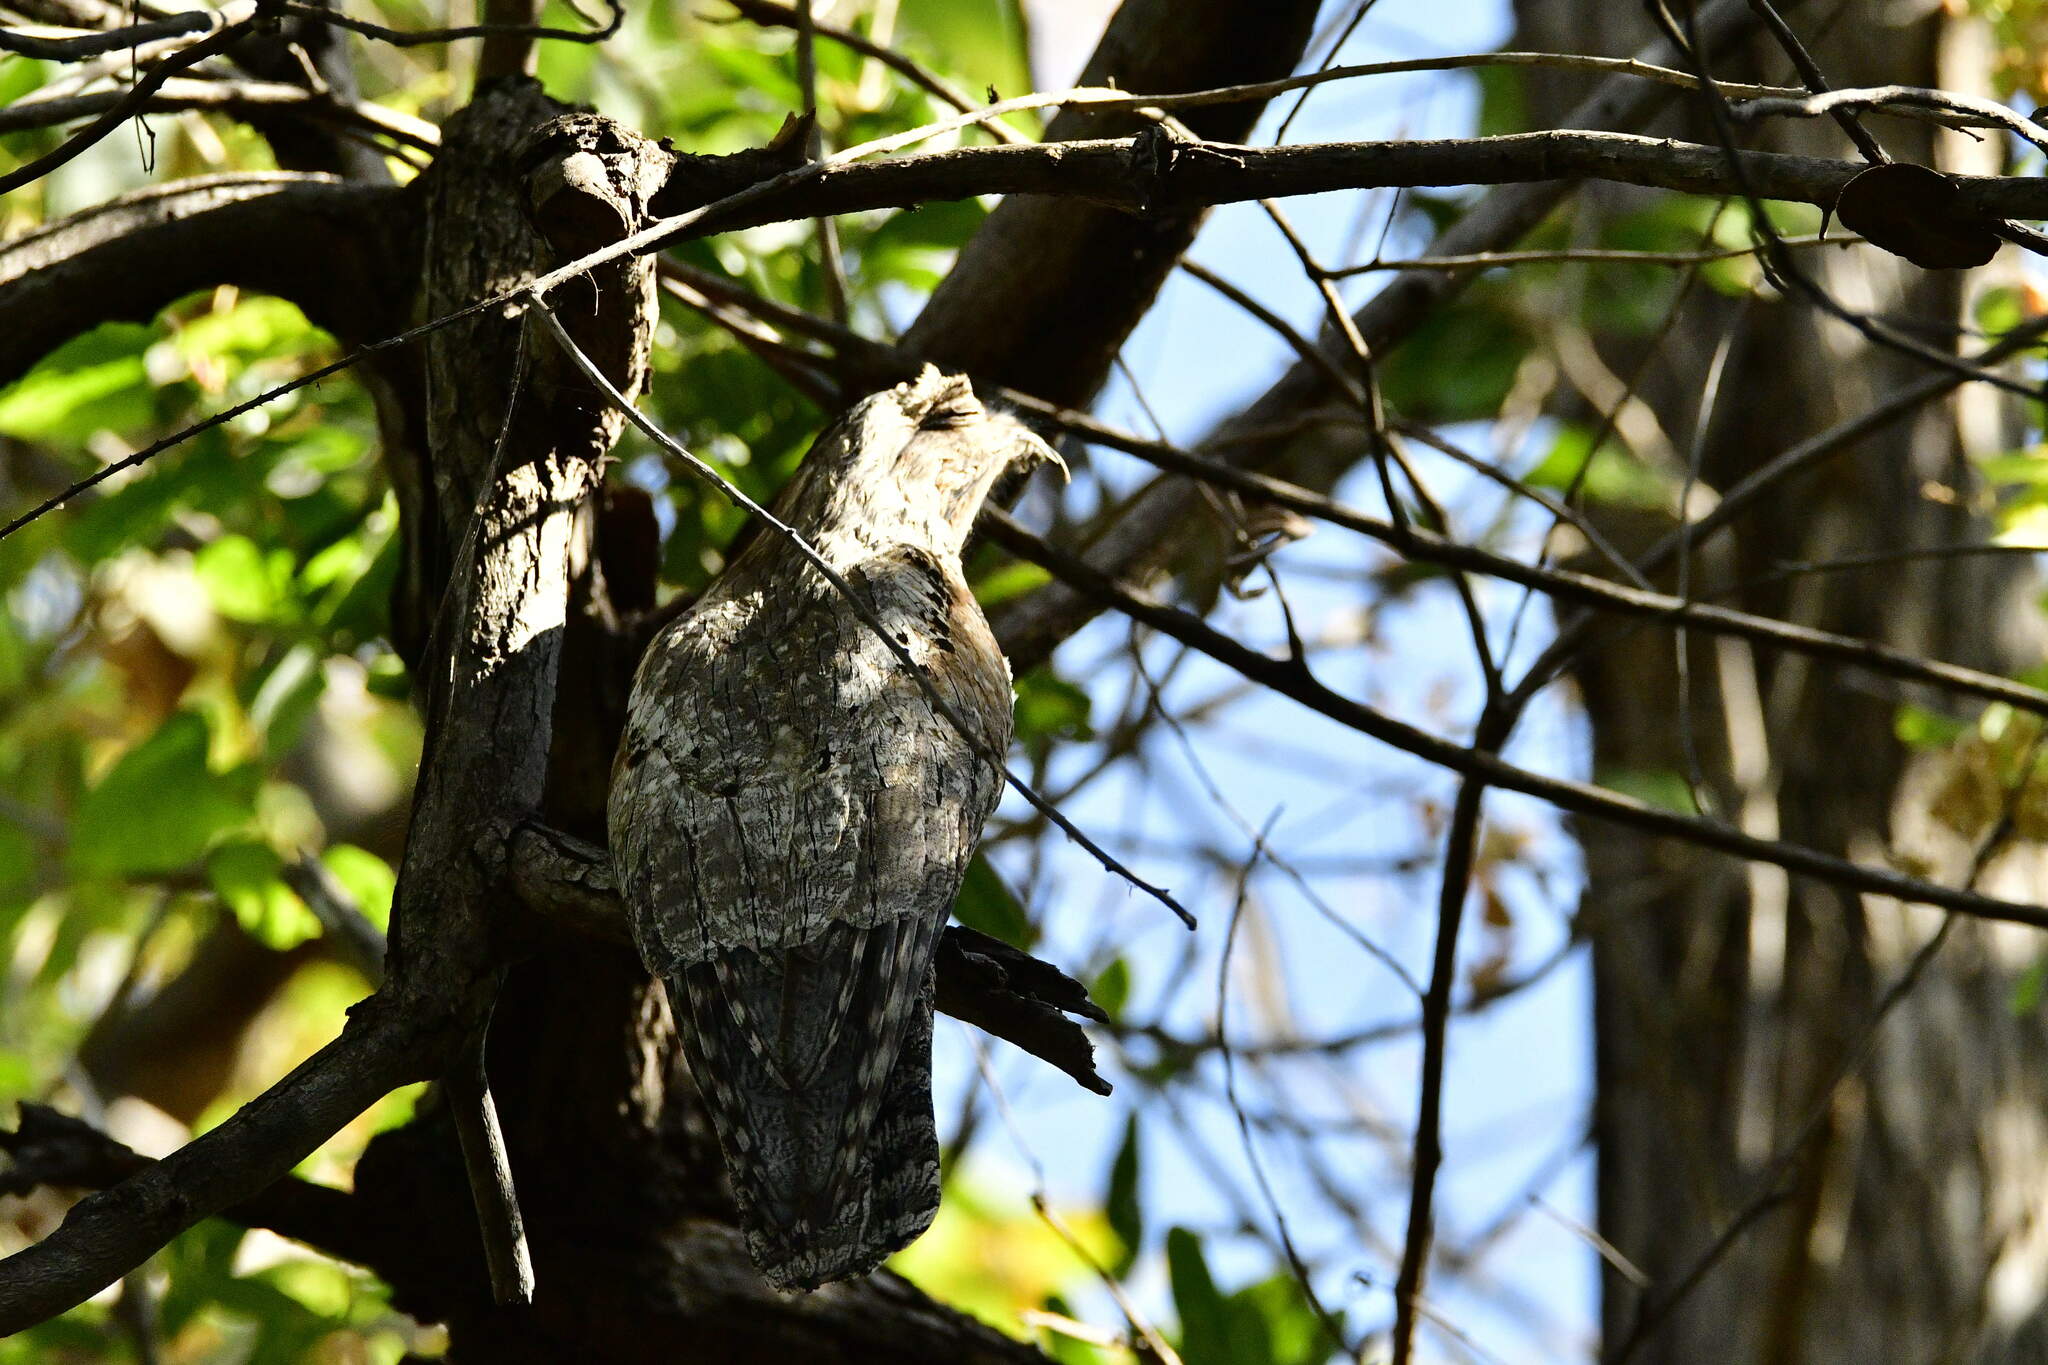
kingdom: Animalia
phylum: Chordata
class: Aves
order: Nyctibiiformes
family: Nyctibiidae
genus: Nyctibius
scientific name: Nyctibius jamaicensis
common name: Northern potoo
